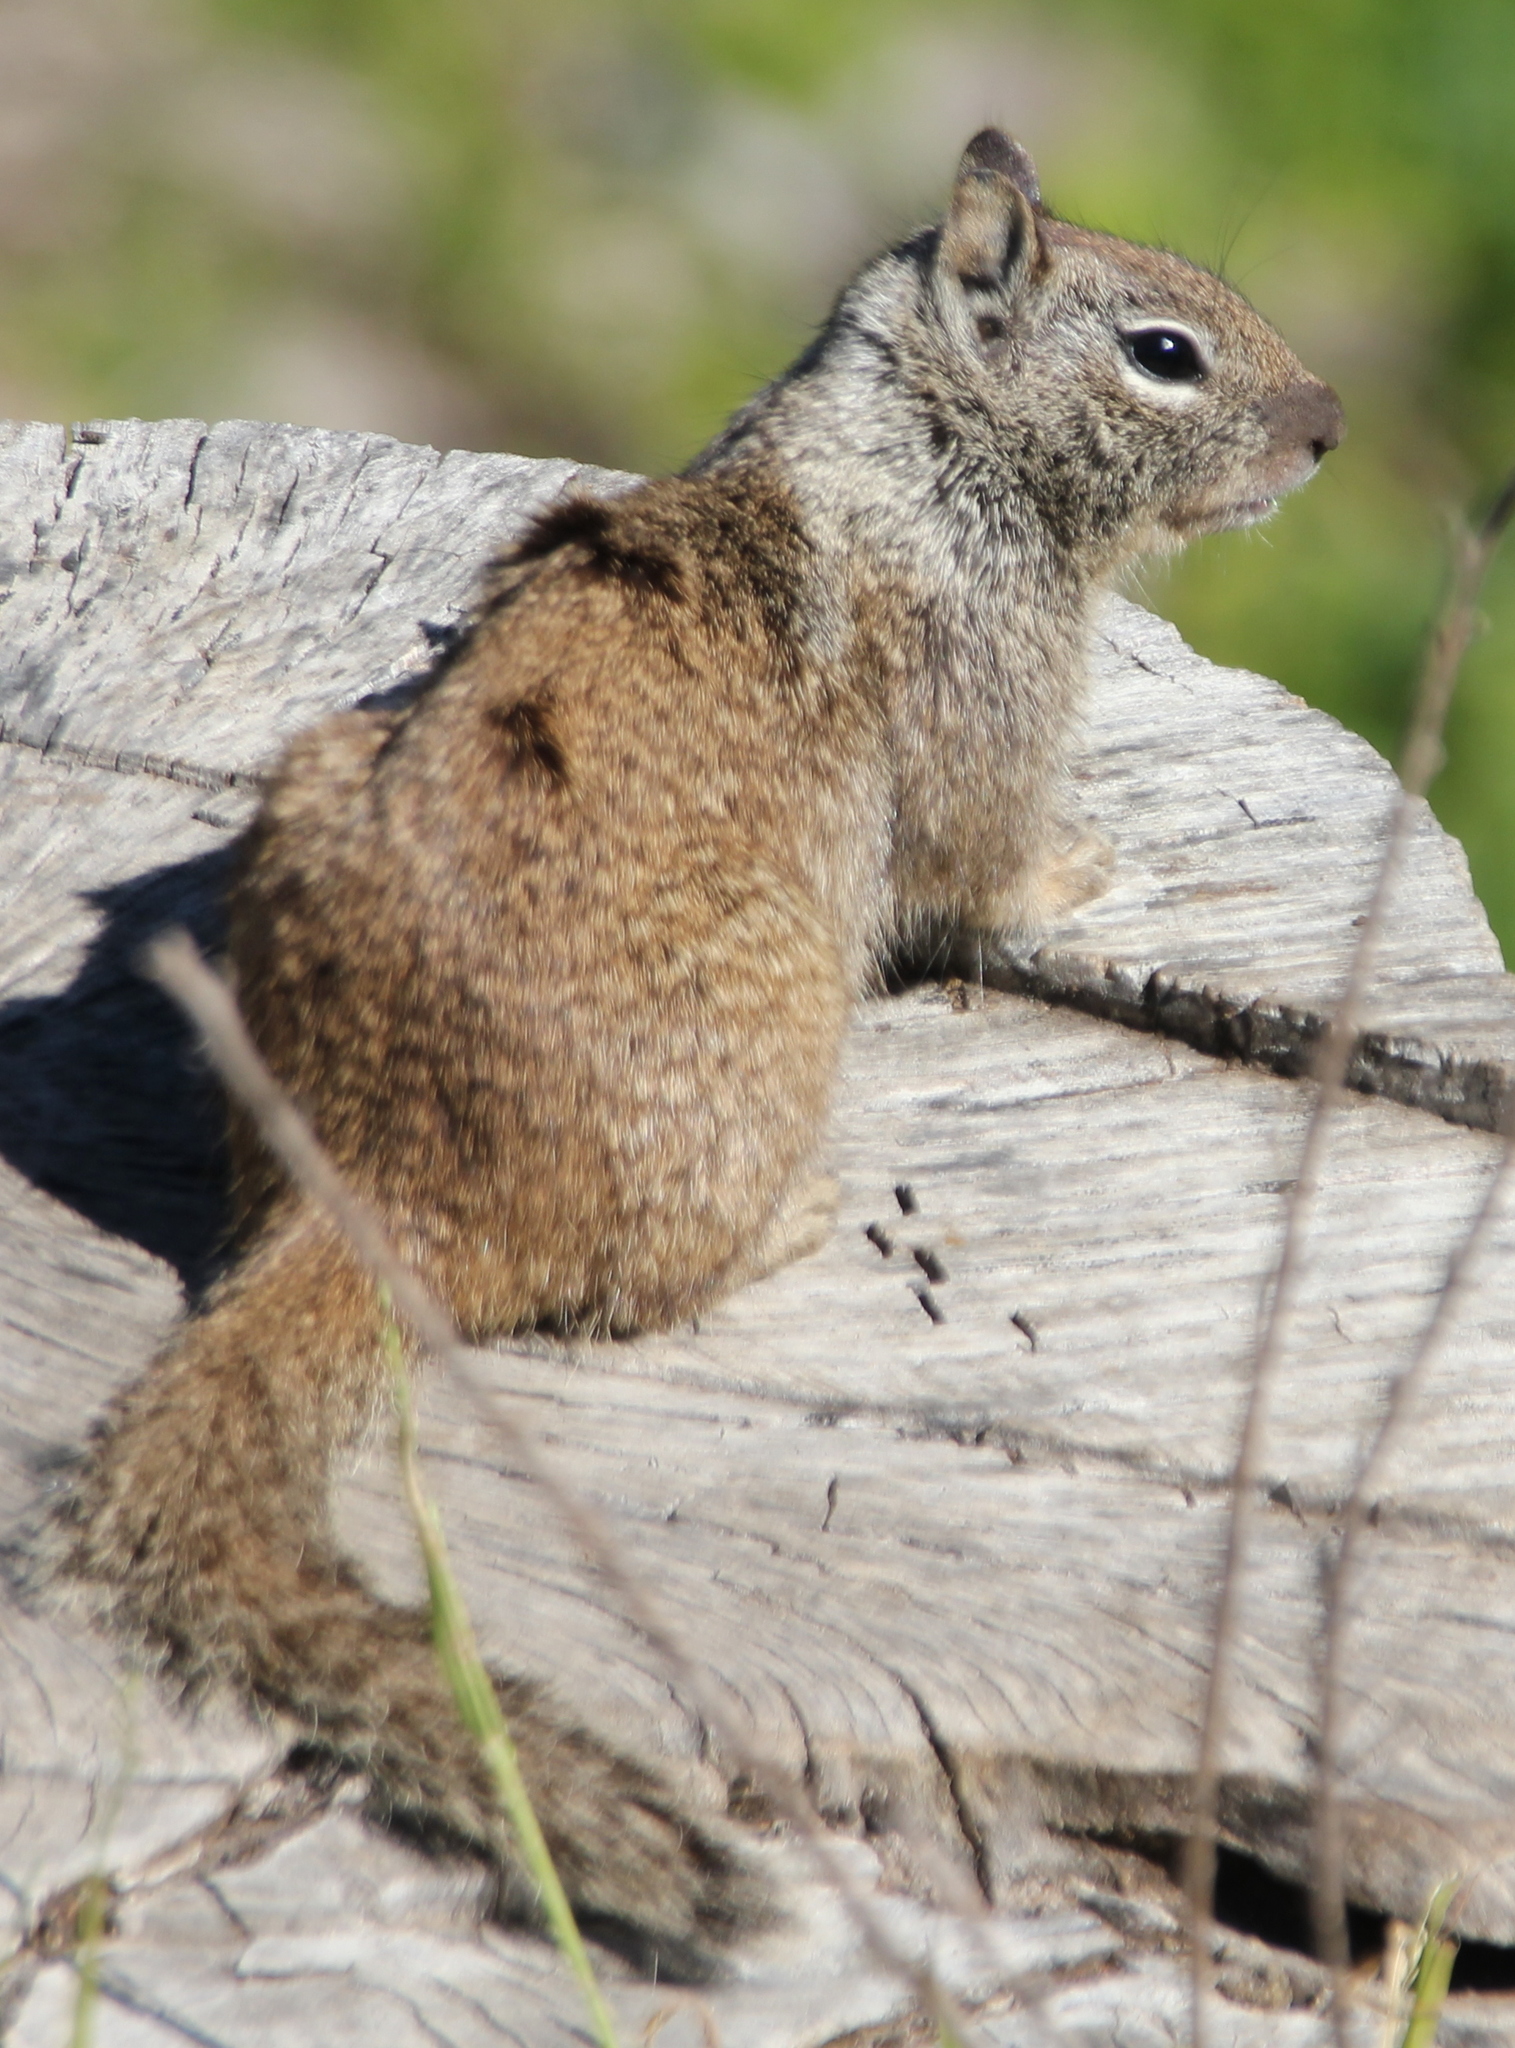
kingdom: Animalia
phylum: Chordata
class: Mammalia
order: Rodentia
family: Sciuridae
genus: Otospermophilus
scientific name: Otospermophilus beecheyi
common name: California ground squirrel
